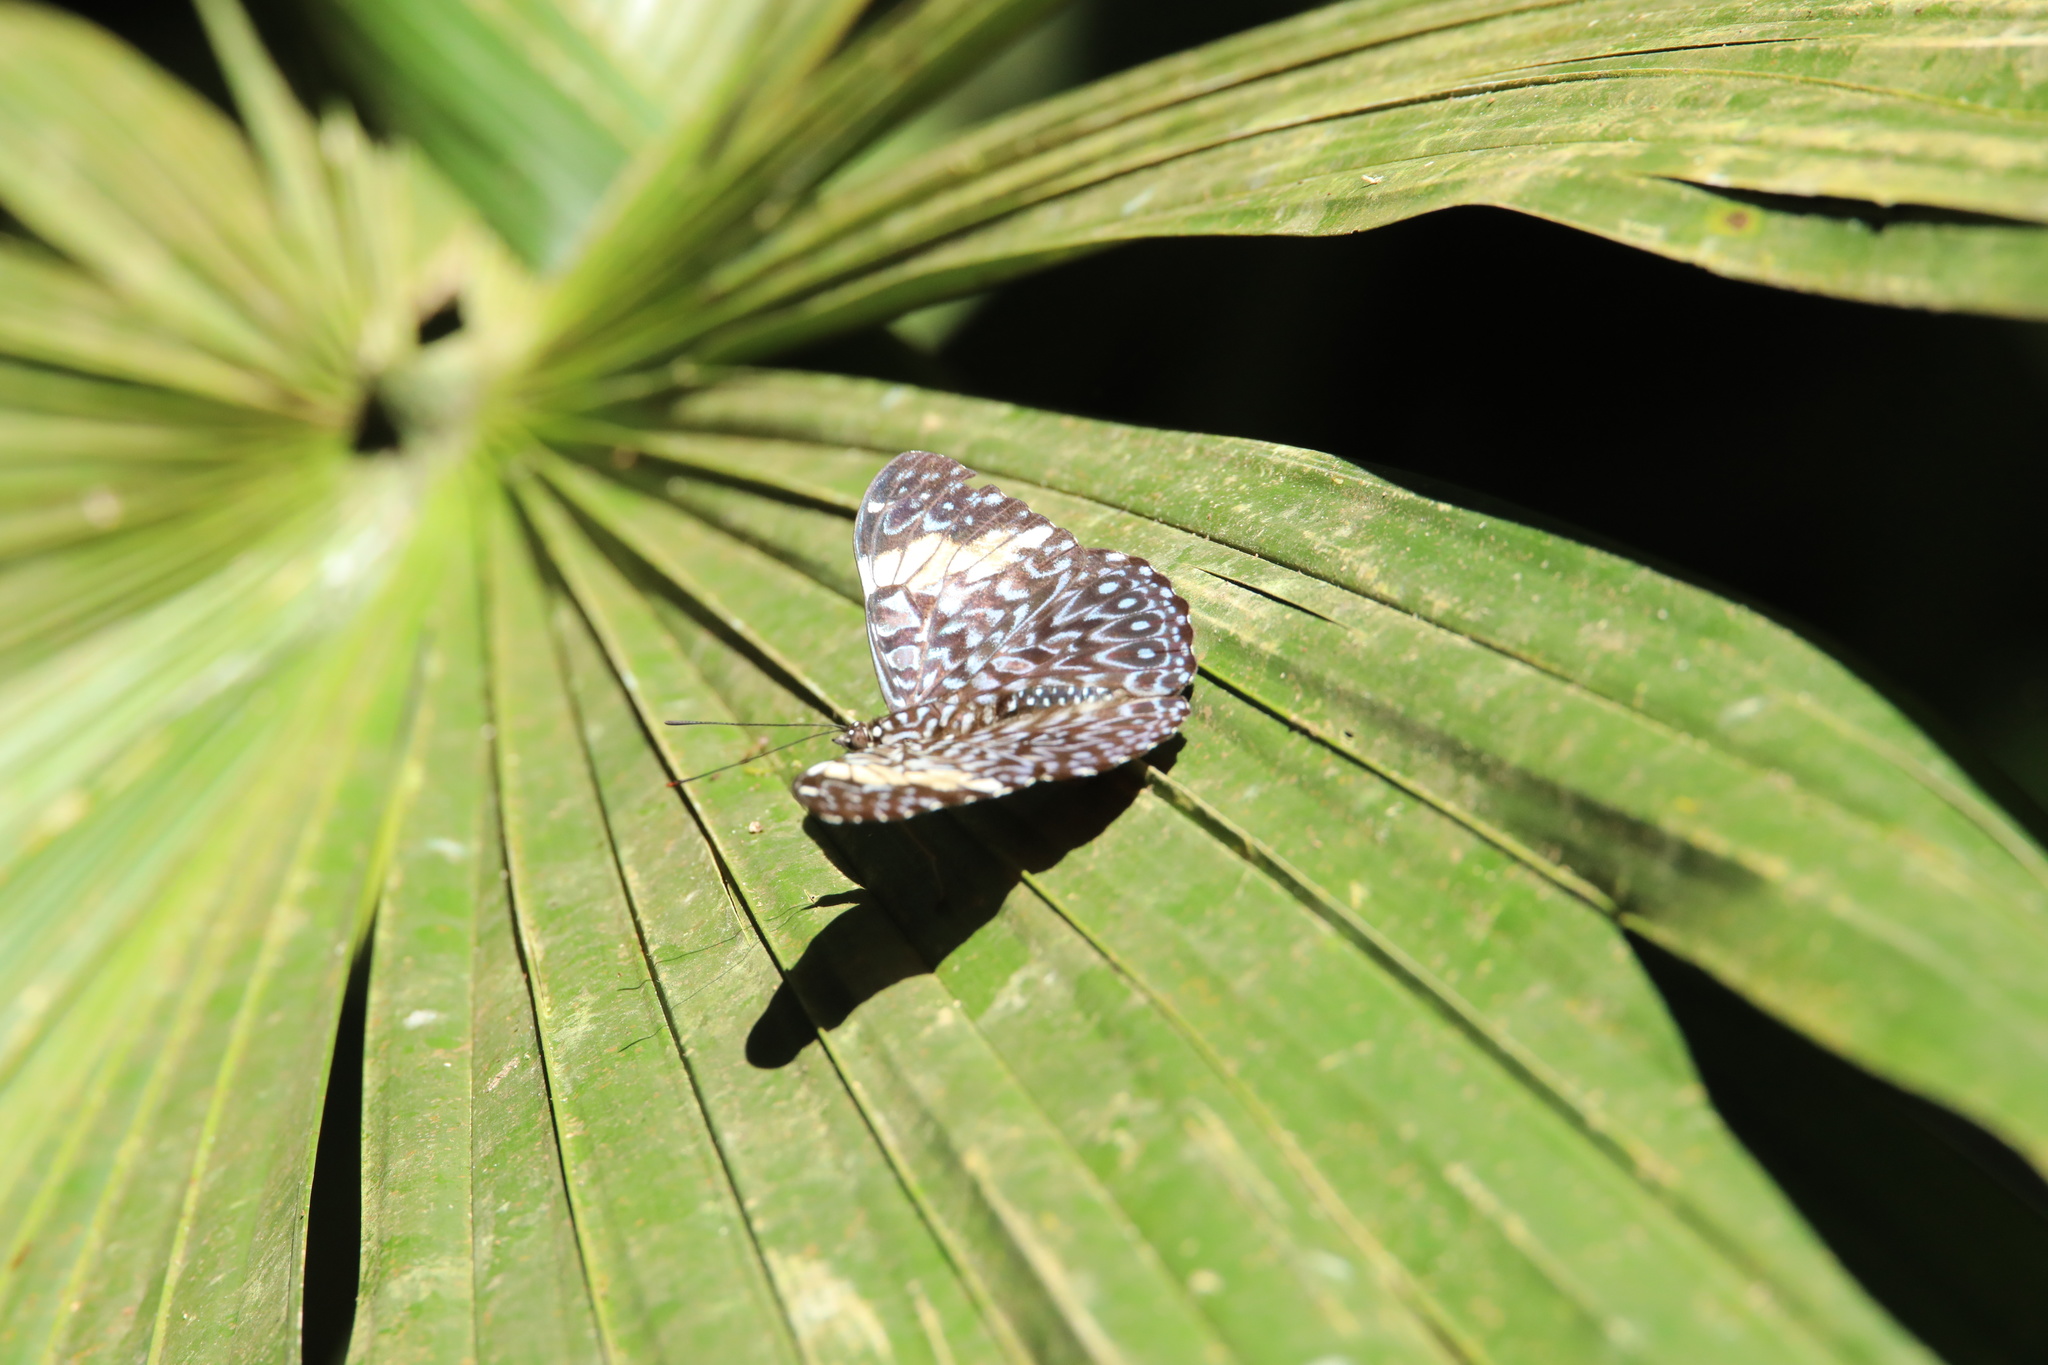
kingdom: Animalia
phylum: Arthropoda
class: Insecta
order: Lepidoptera
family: Nymphalidae
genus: Hamadryas
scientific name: Hamadryas amphinome
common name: Red cracker
